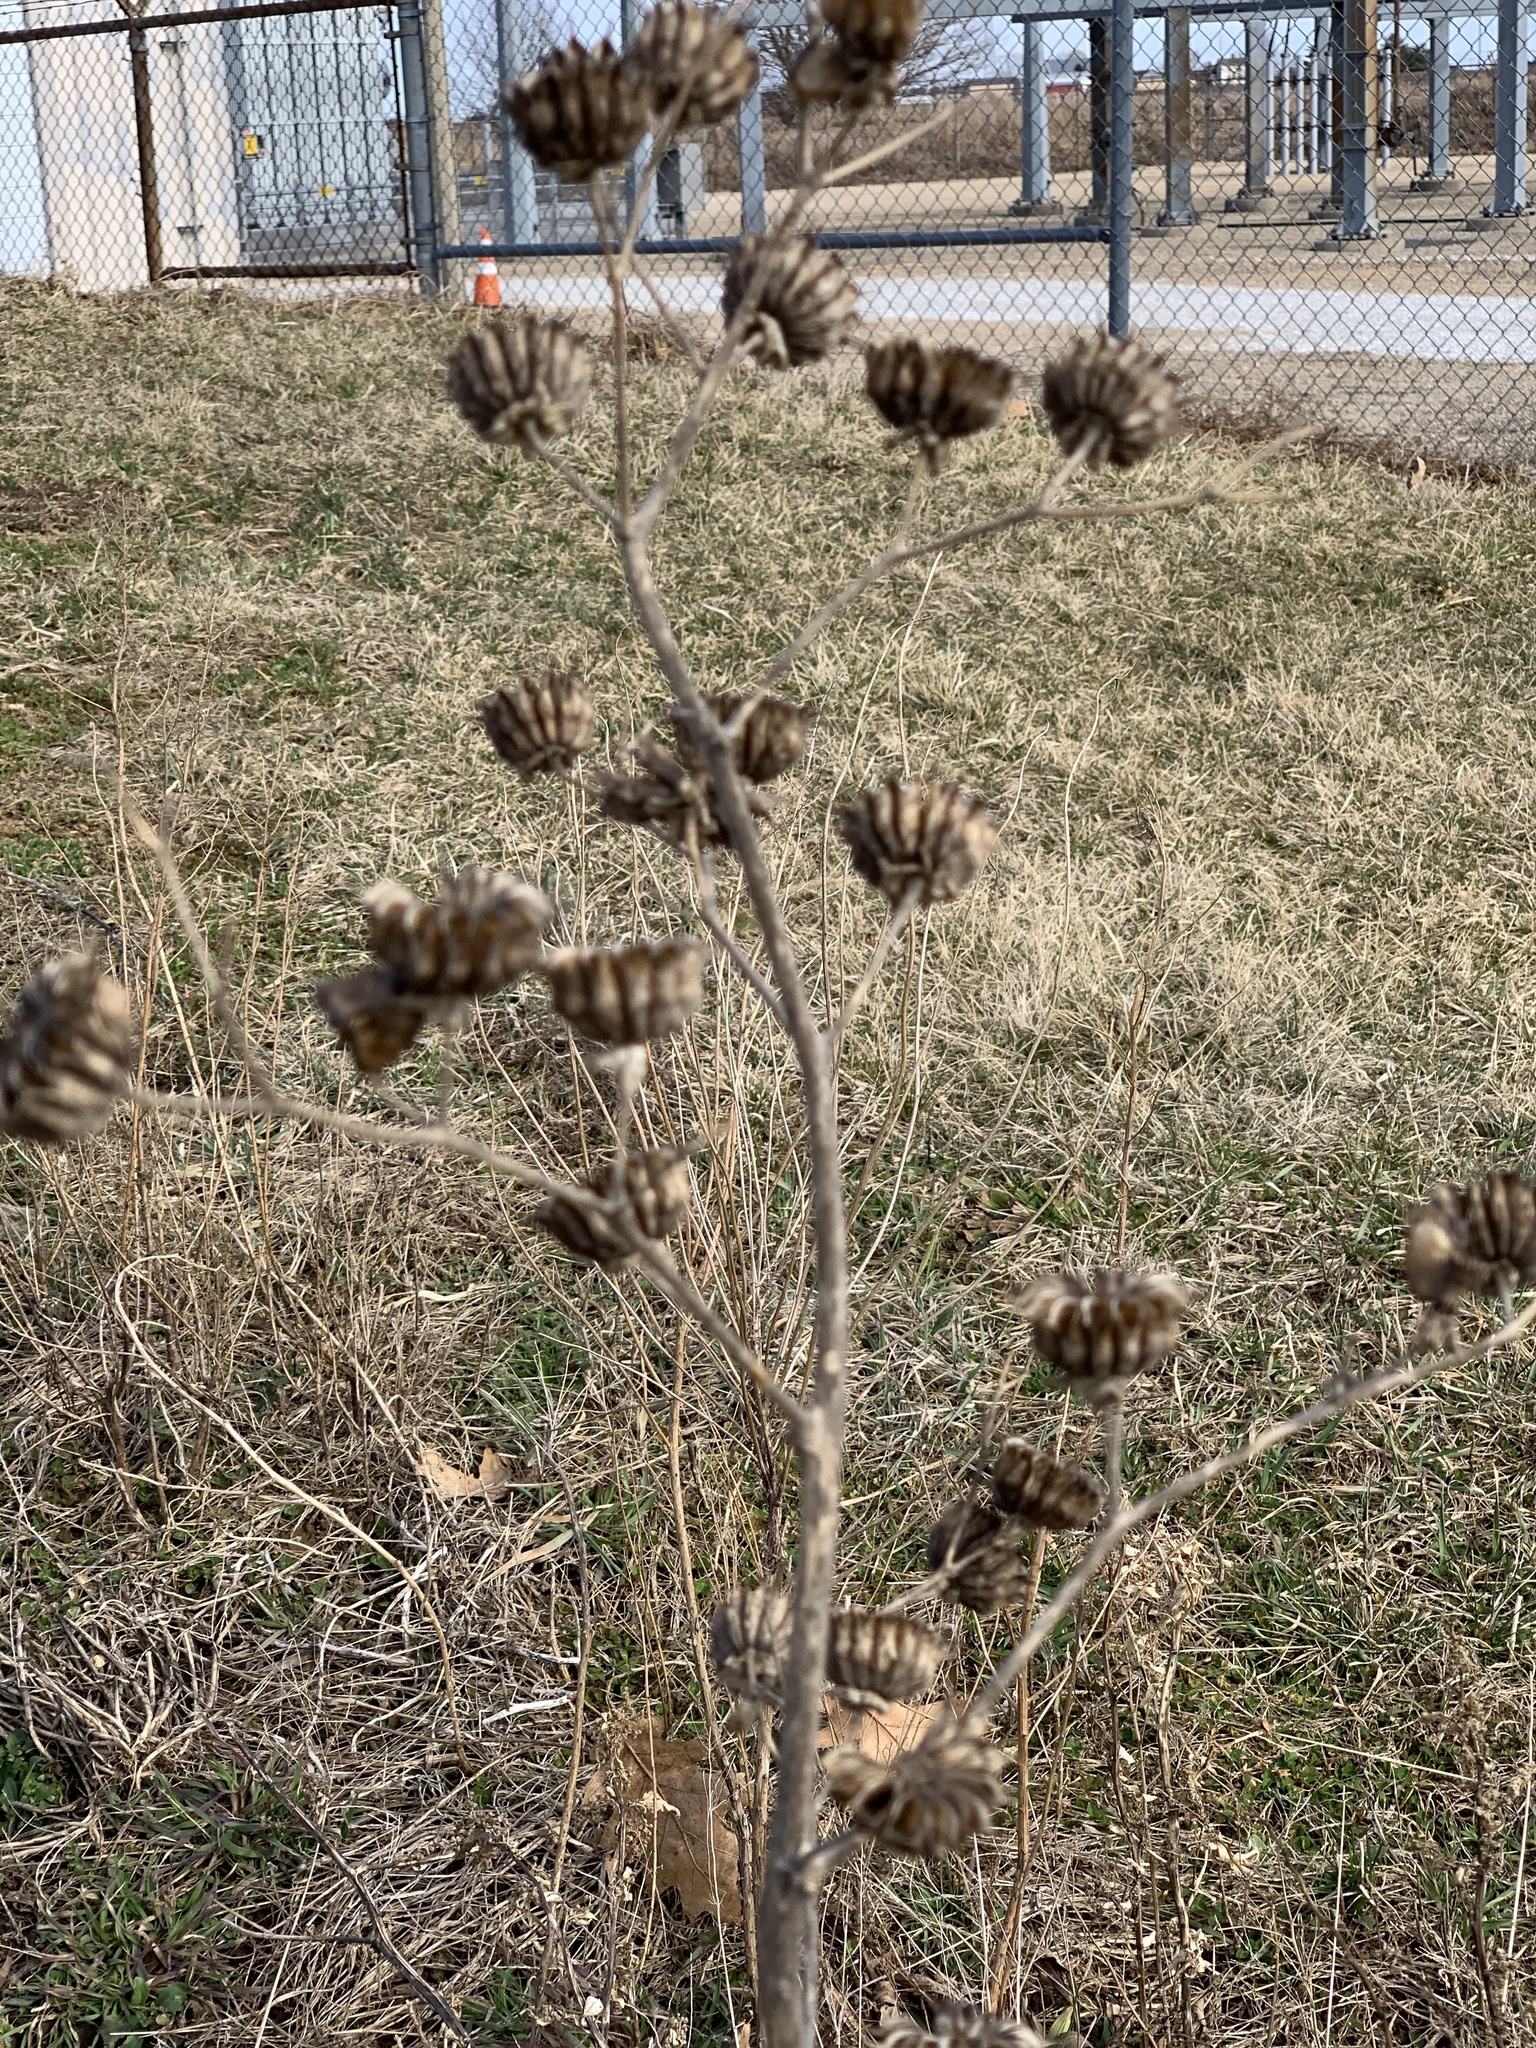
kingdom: Plantae
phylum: Tracheophyta
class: Magnoliopsida
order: Malvales
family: Malvaceae
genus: Abutilon
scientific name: Abutilon theophrasti
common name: Velvetleaf
